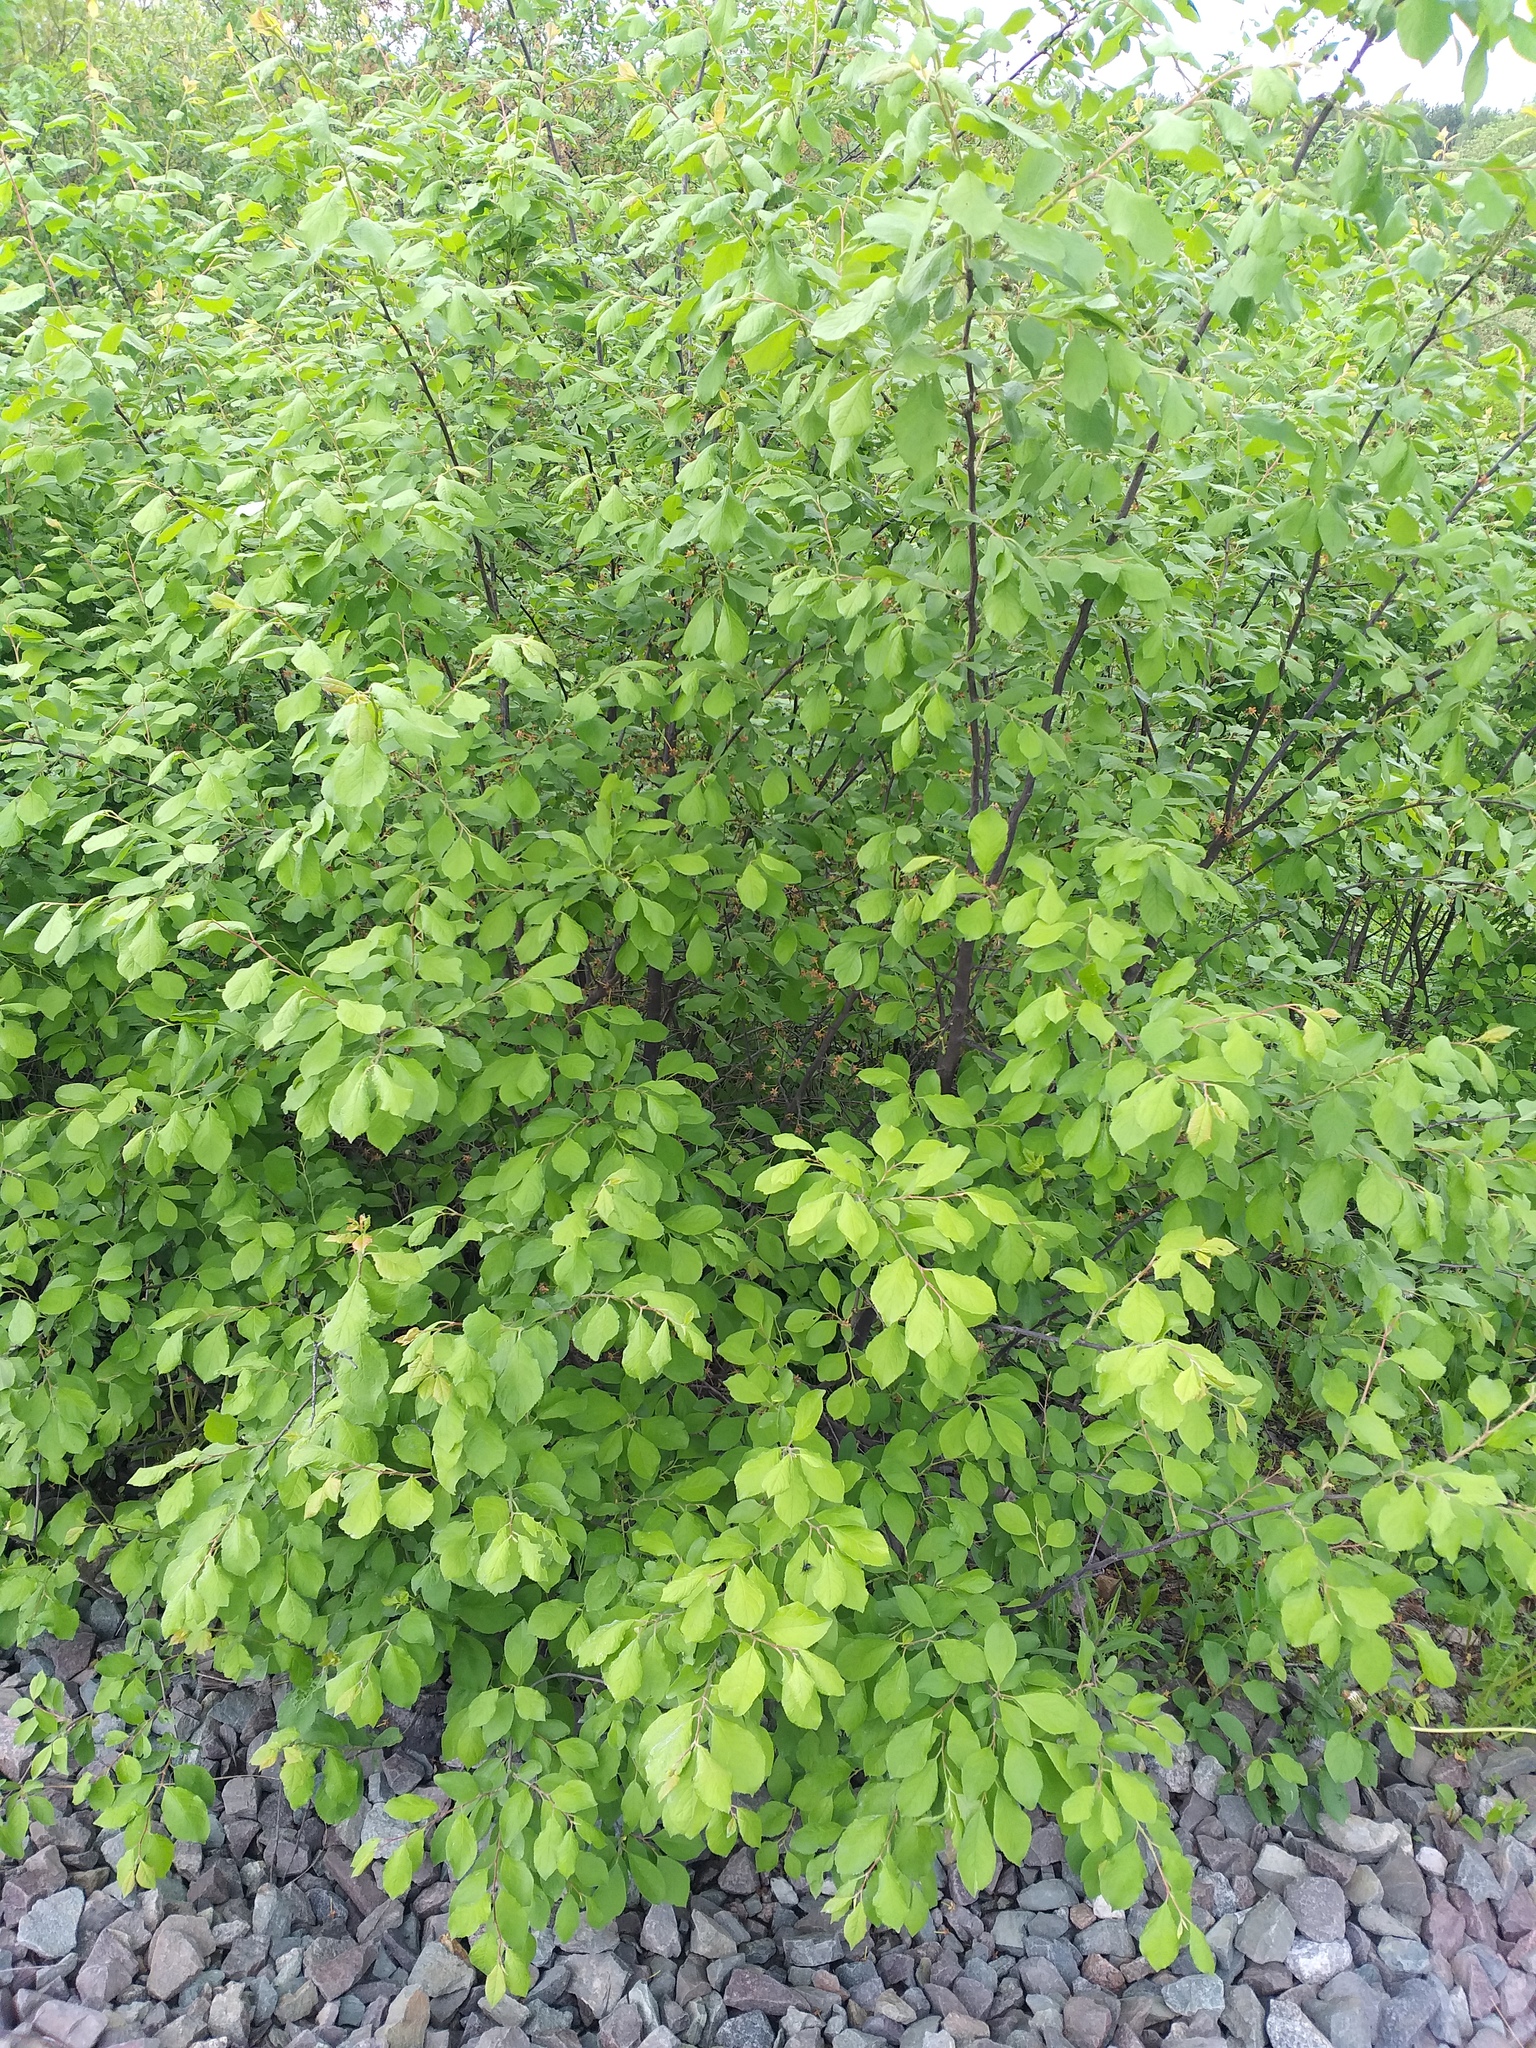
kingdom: Plantae
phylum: Tracheophyta
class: Magnoliopsida
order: Rosales
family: Rosaceae
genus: Prunus
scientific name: Prunus domestica
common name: Wild plum
